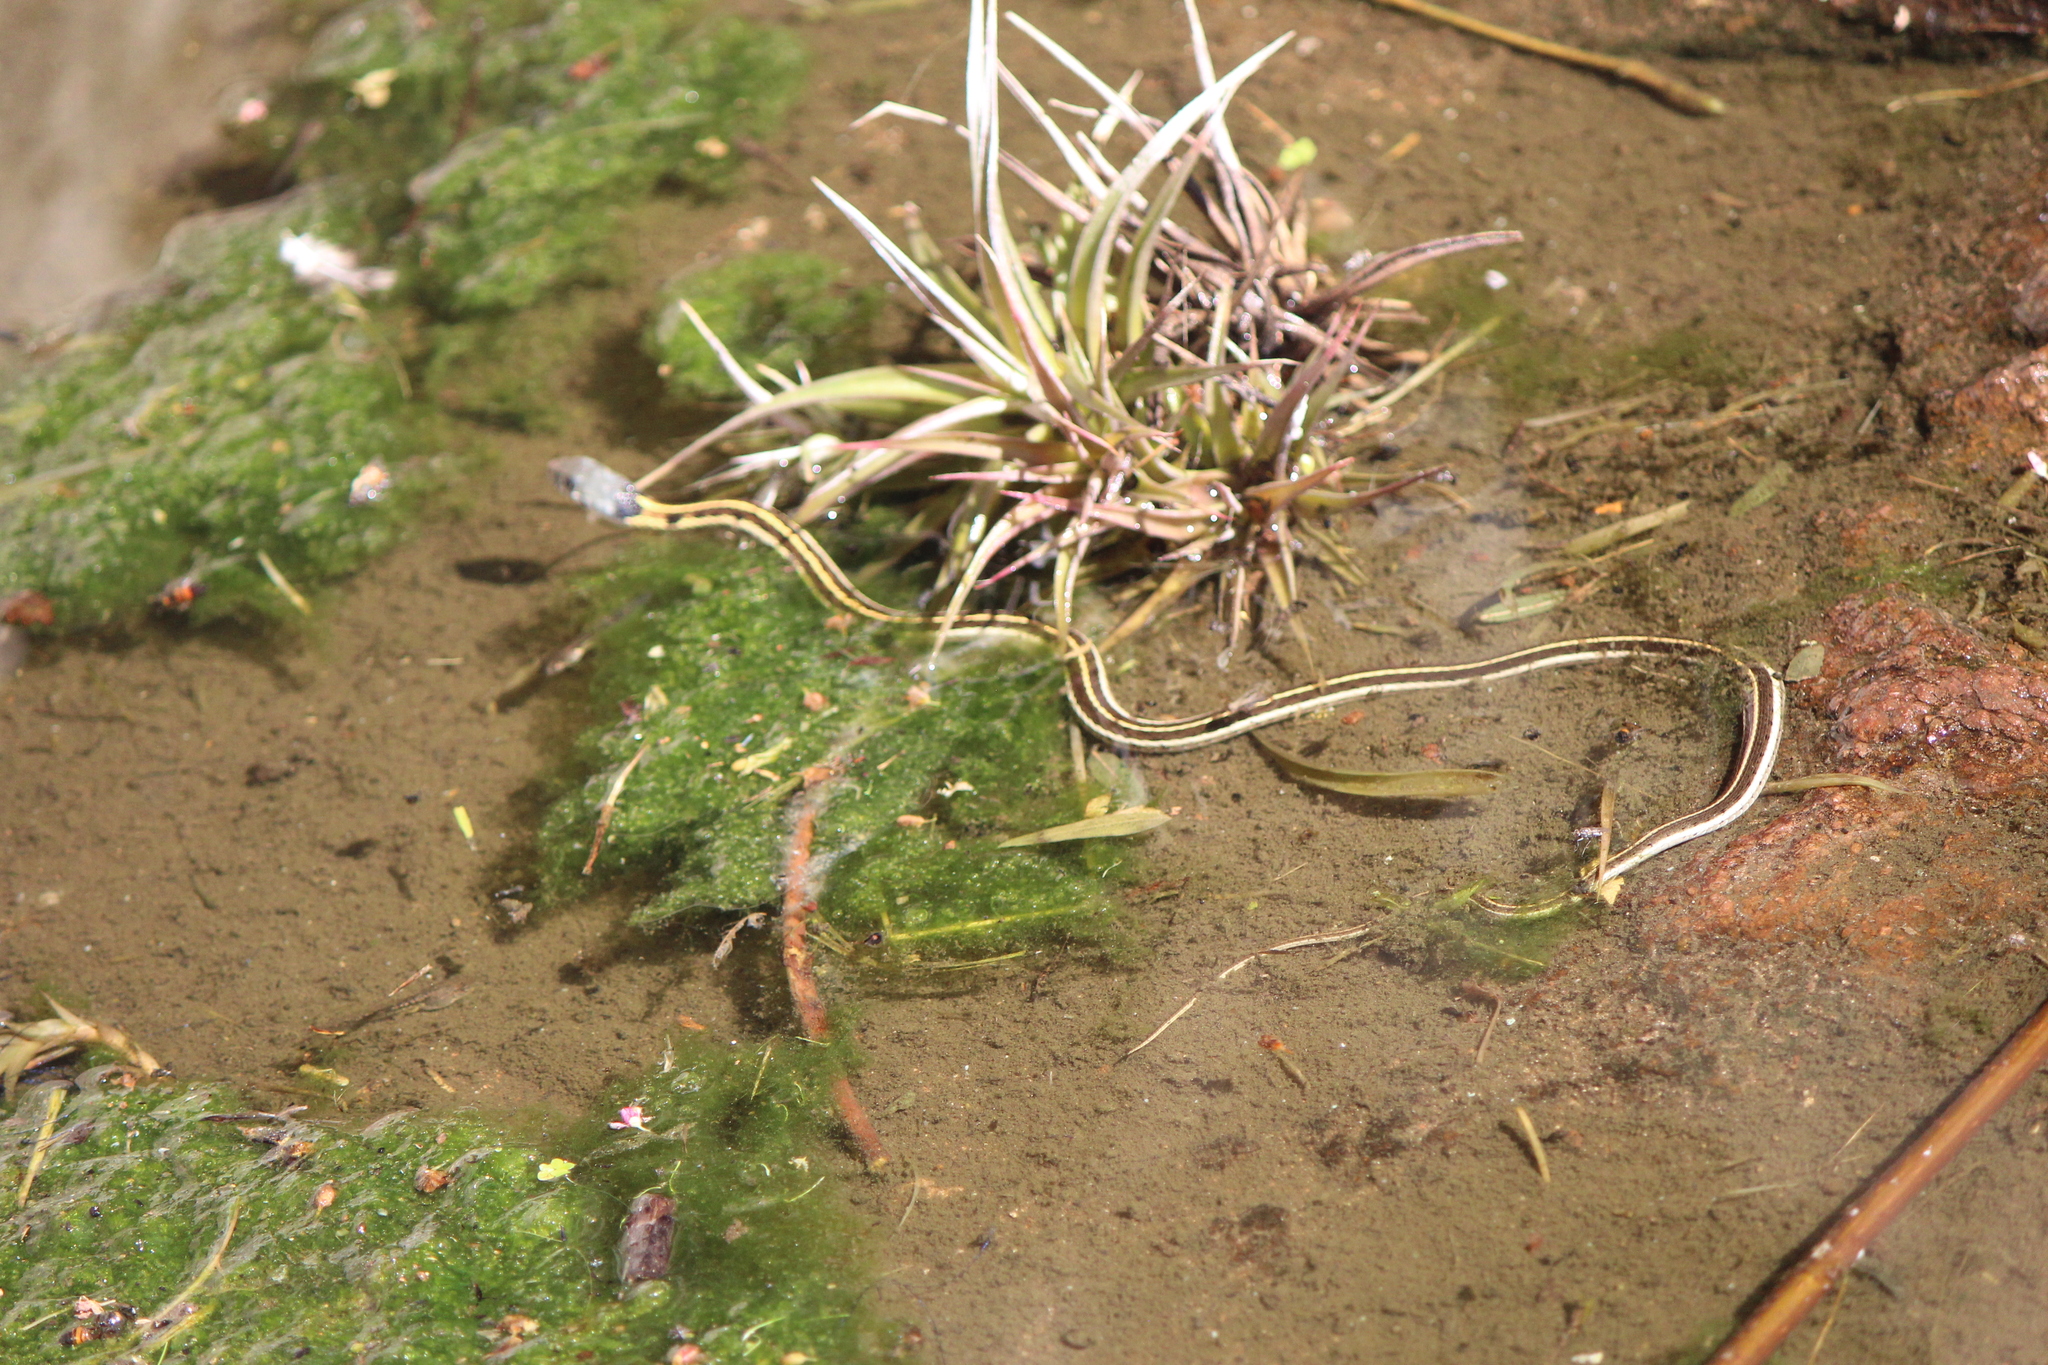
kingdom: Animalia
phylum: Chordata
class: Squamata
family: Colubridae
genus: Thamnophis
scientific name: Thamnophis cyrtopsis
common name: Black-necked gartersnake
